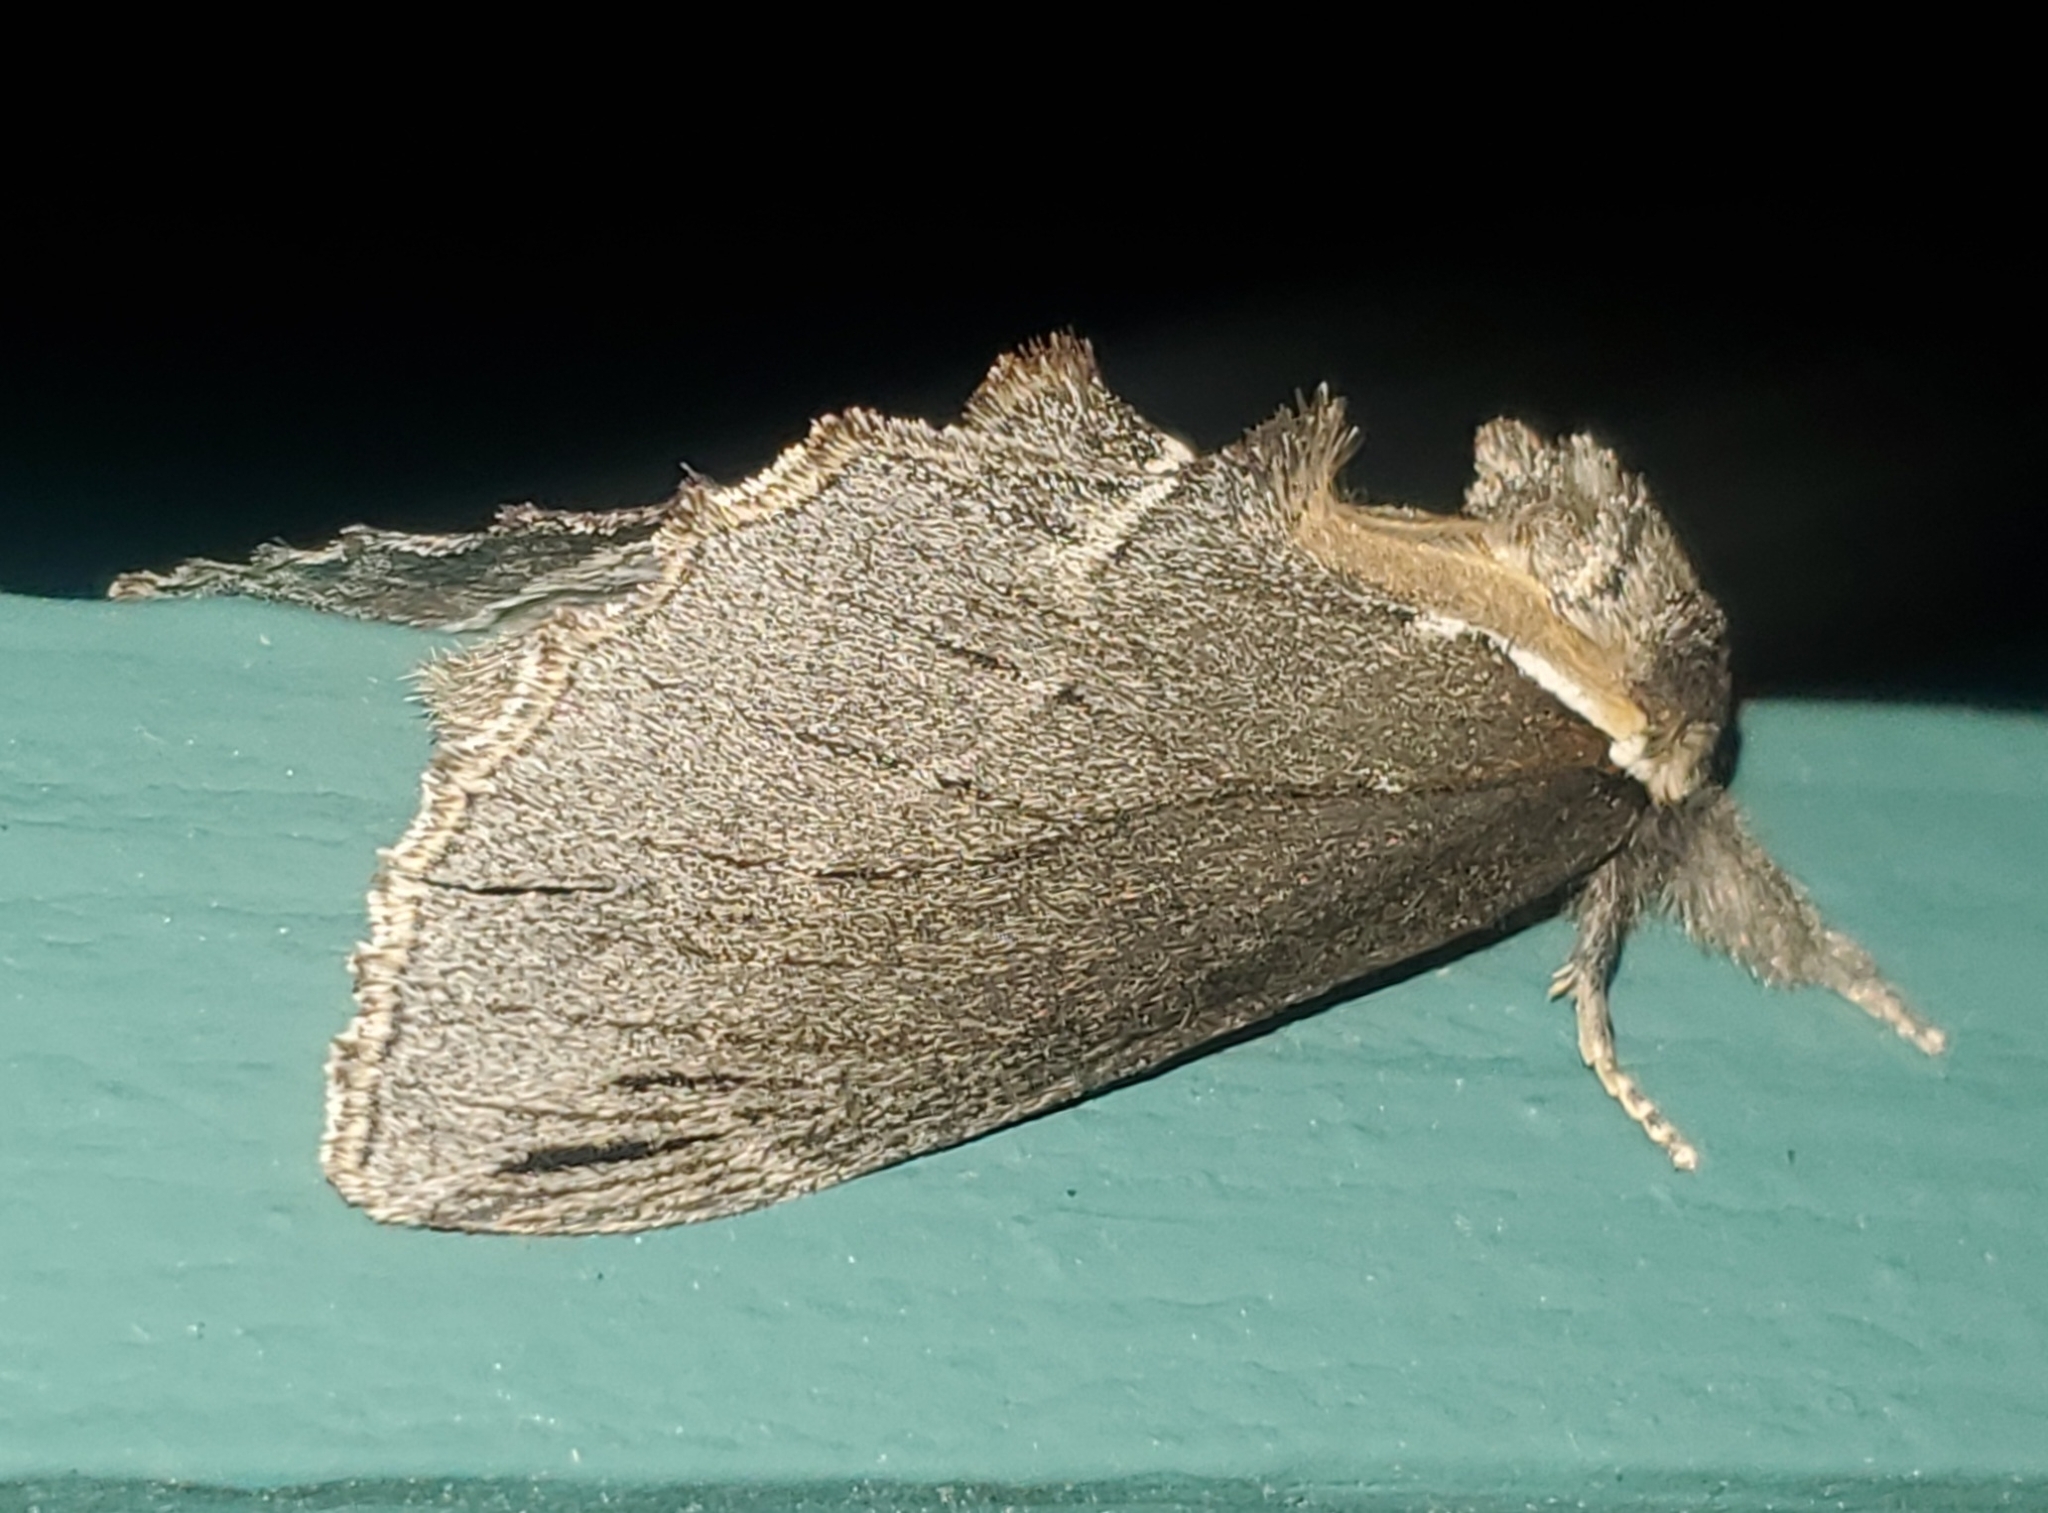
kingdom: Animalia
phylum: Arthropoda
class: Insecta
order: Lepidoptera
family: Notodontidae
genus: Pheosidea
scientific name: Pheosidea elegans
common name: Elegant prominent
